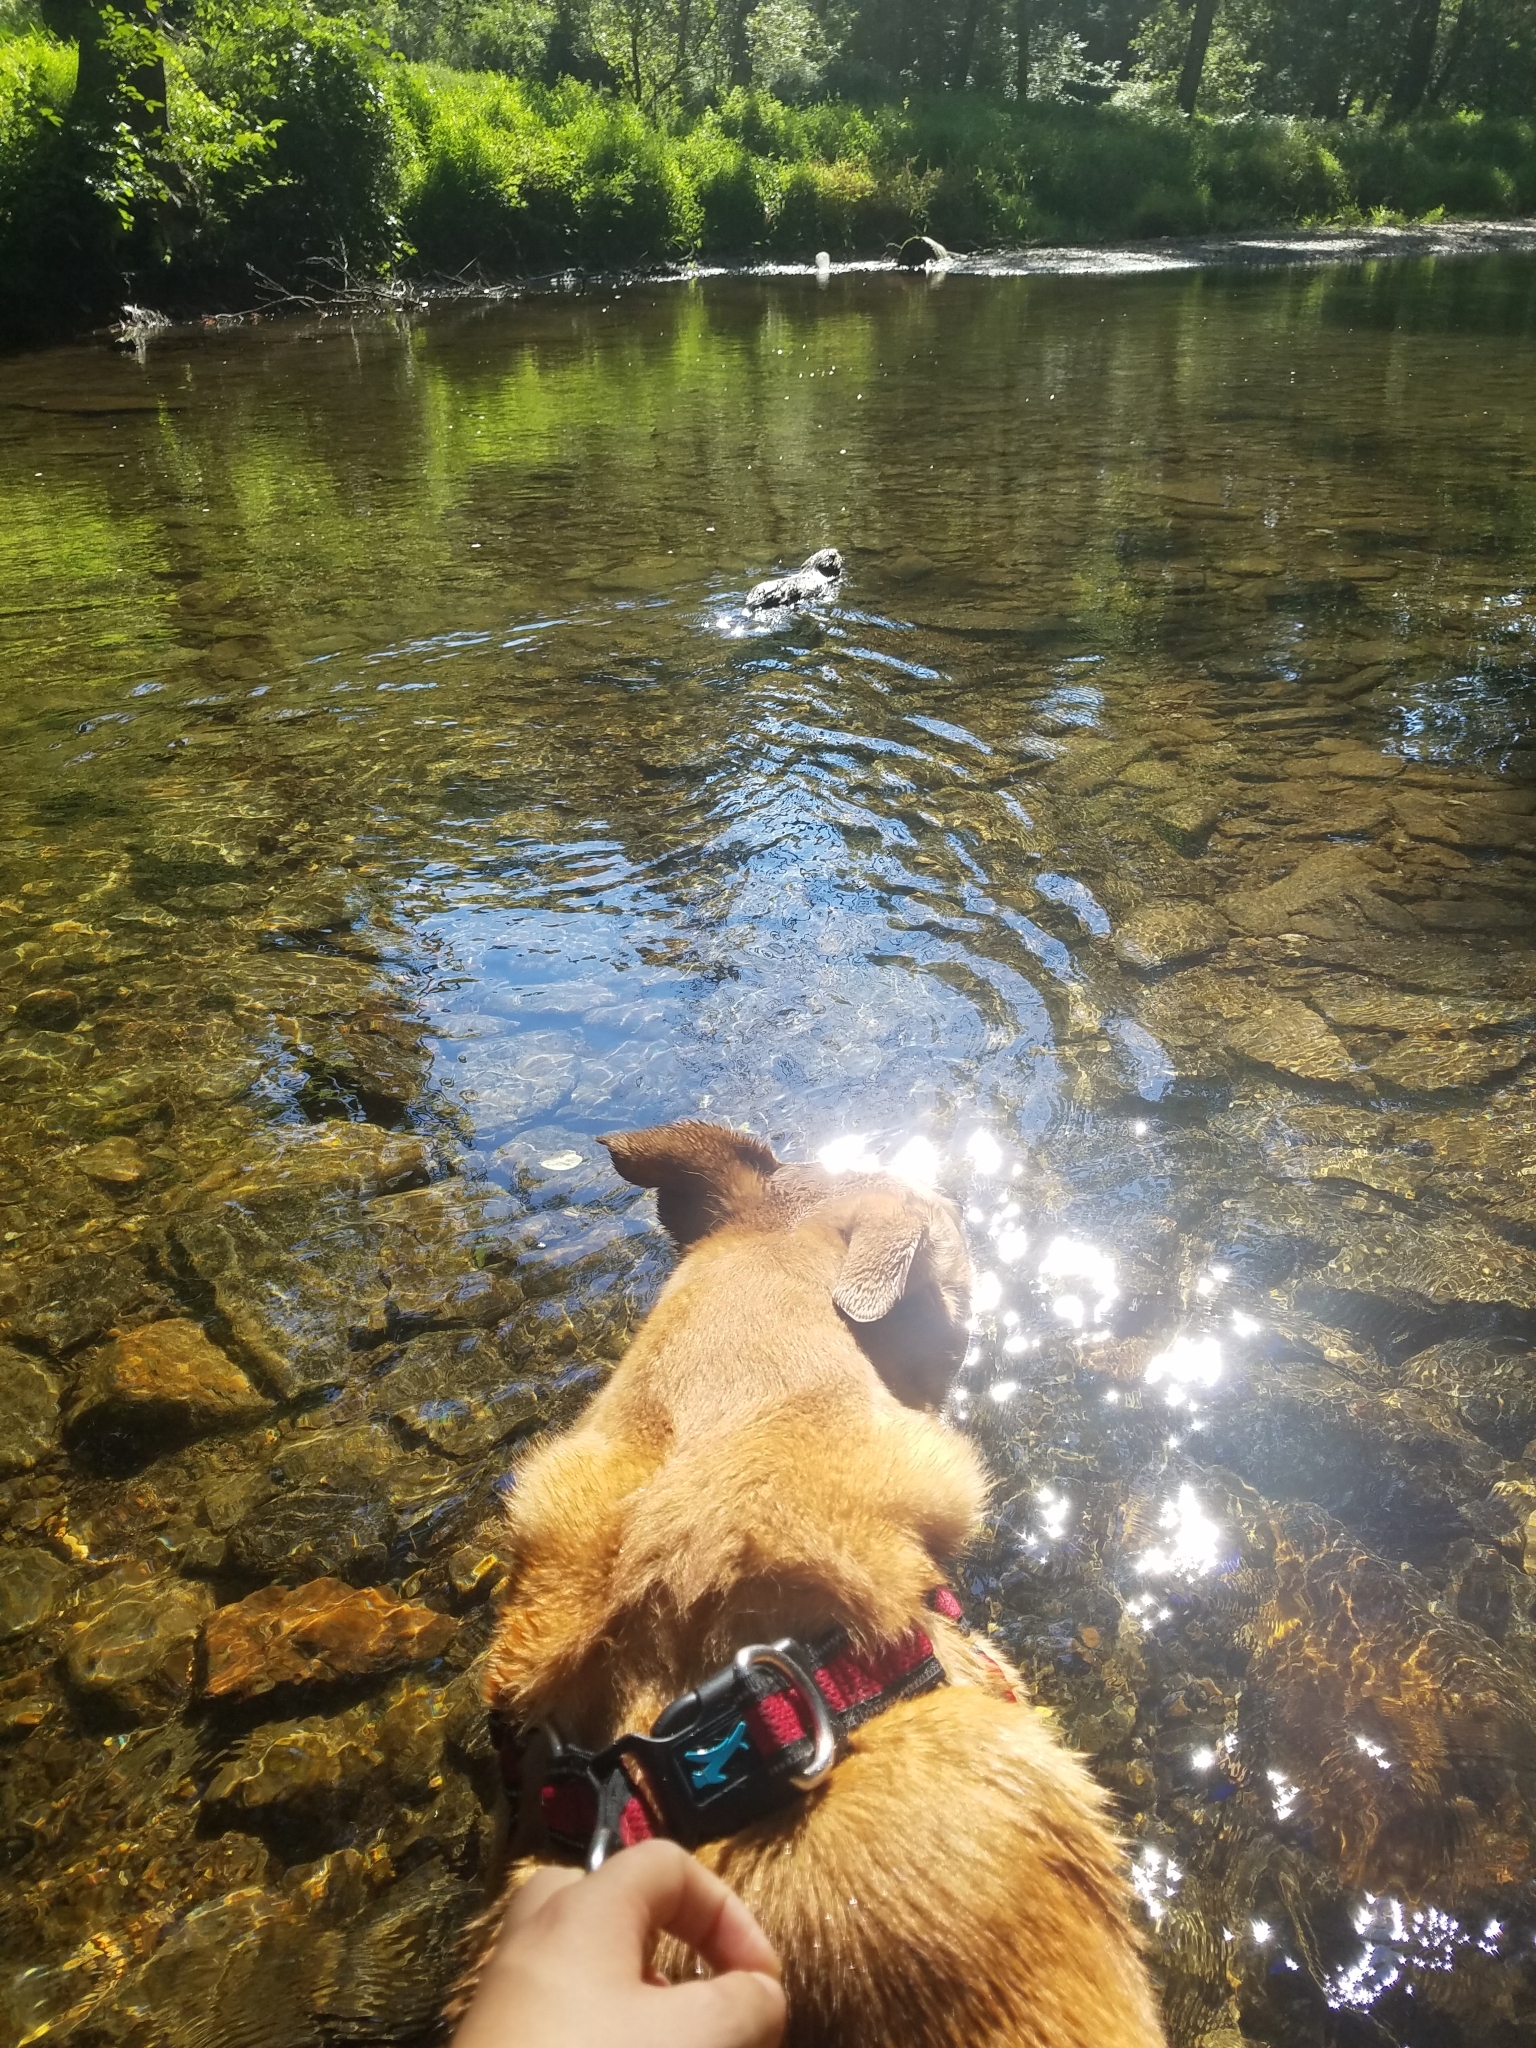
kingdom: Animalia
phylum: Chordata
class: Mammalia
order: Rodentia
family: Castoridae
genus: Castor
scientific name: Castor canadensis
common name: American beaver
